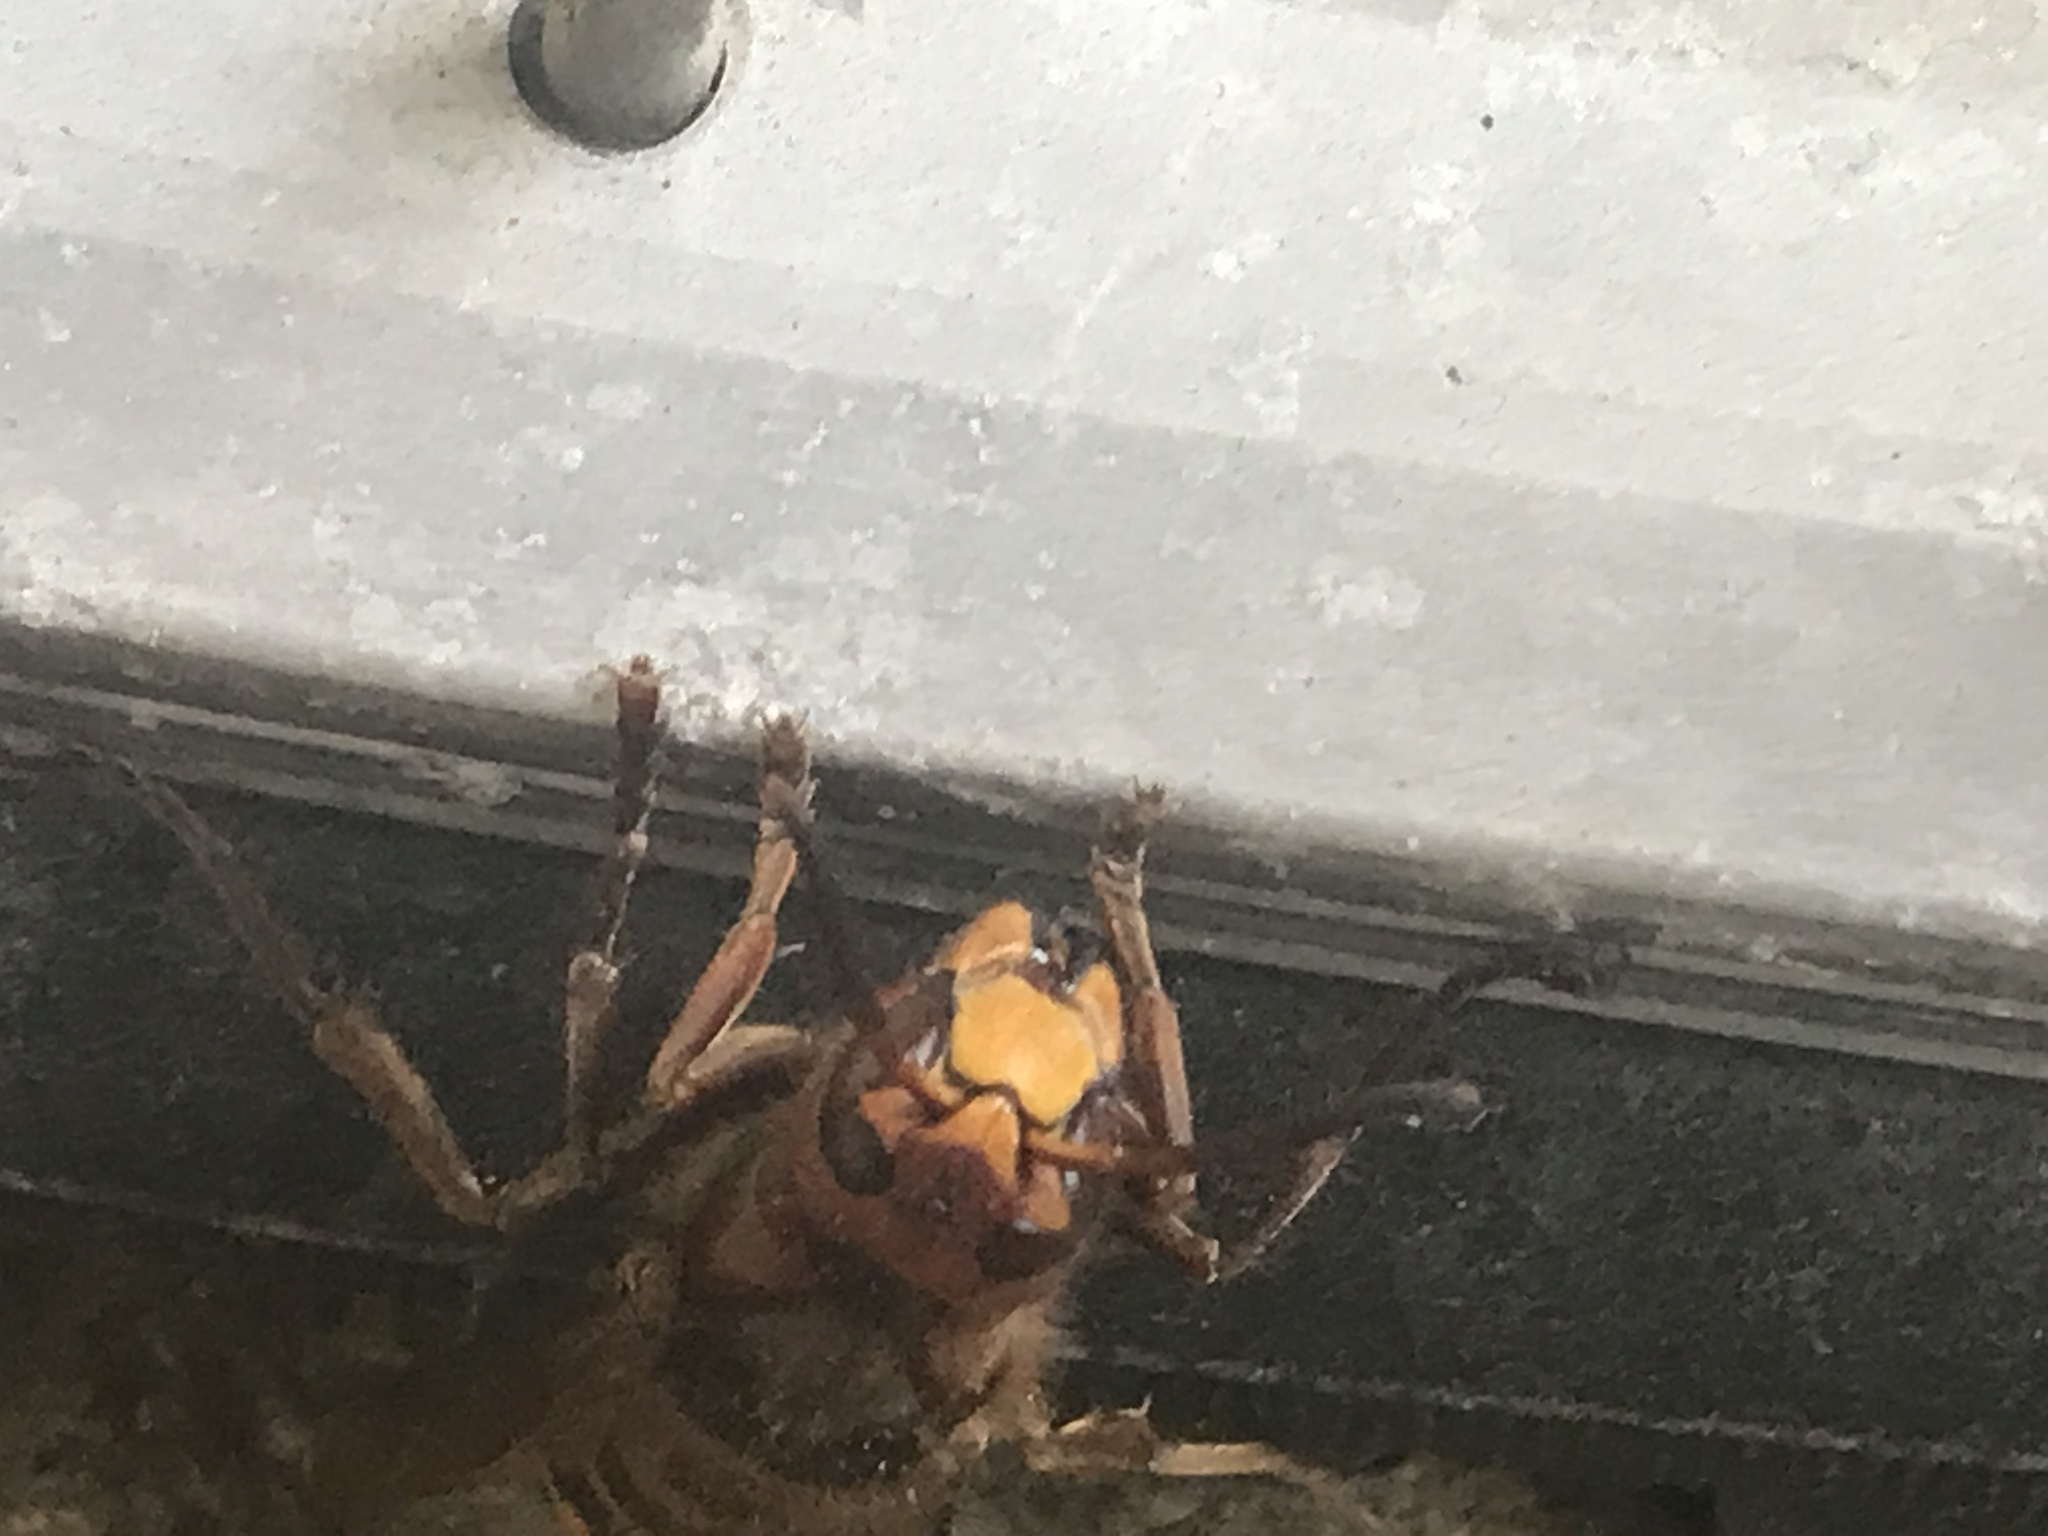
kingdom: Animalia
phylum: Arthropoda
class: Insecta
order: Hymenoptera
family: Vespidae
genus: Vespa
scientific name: Vespa crabro
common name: Hornet
